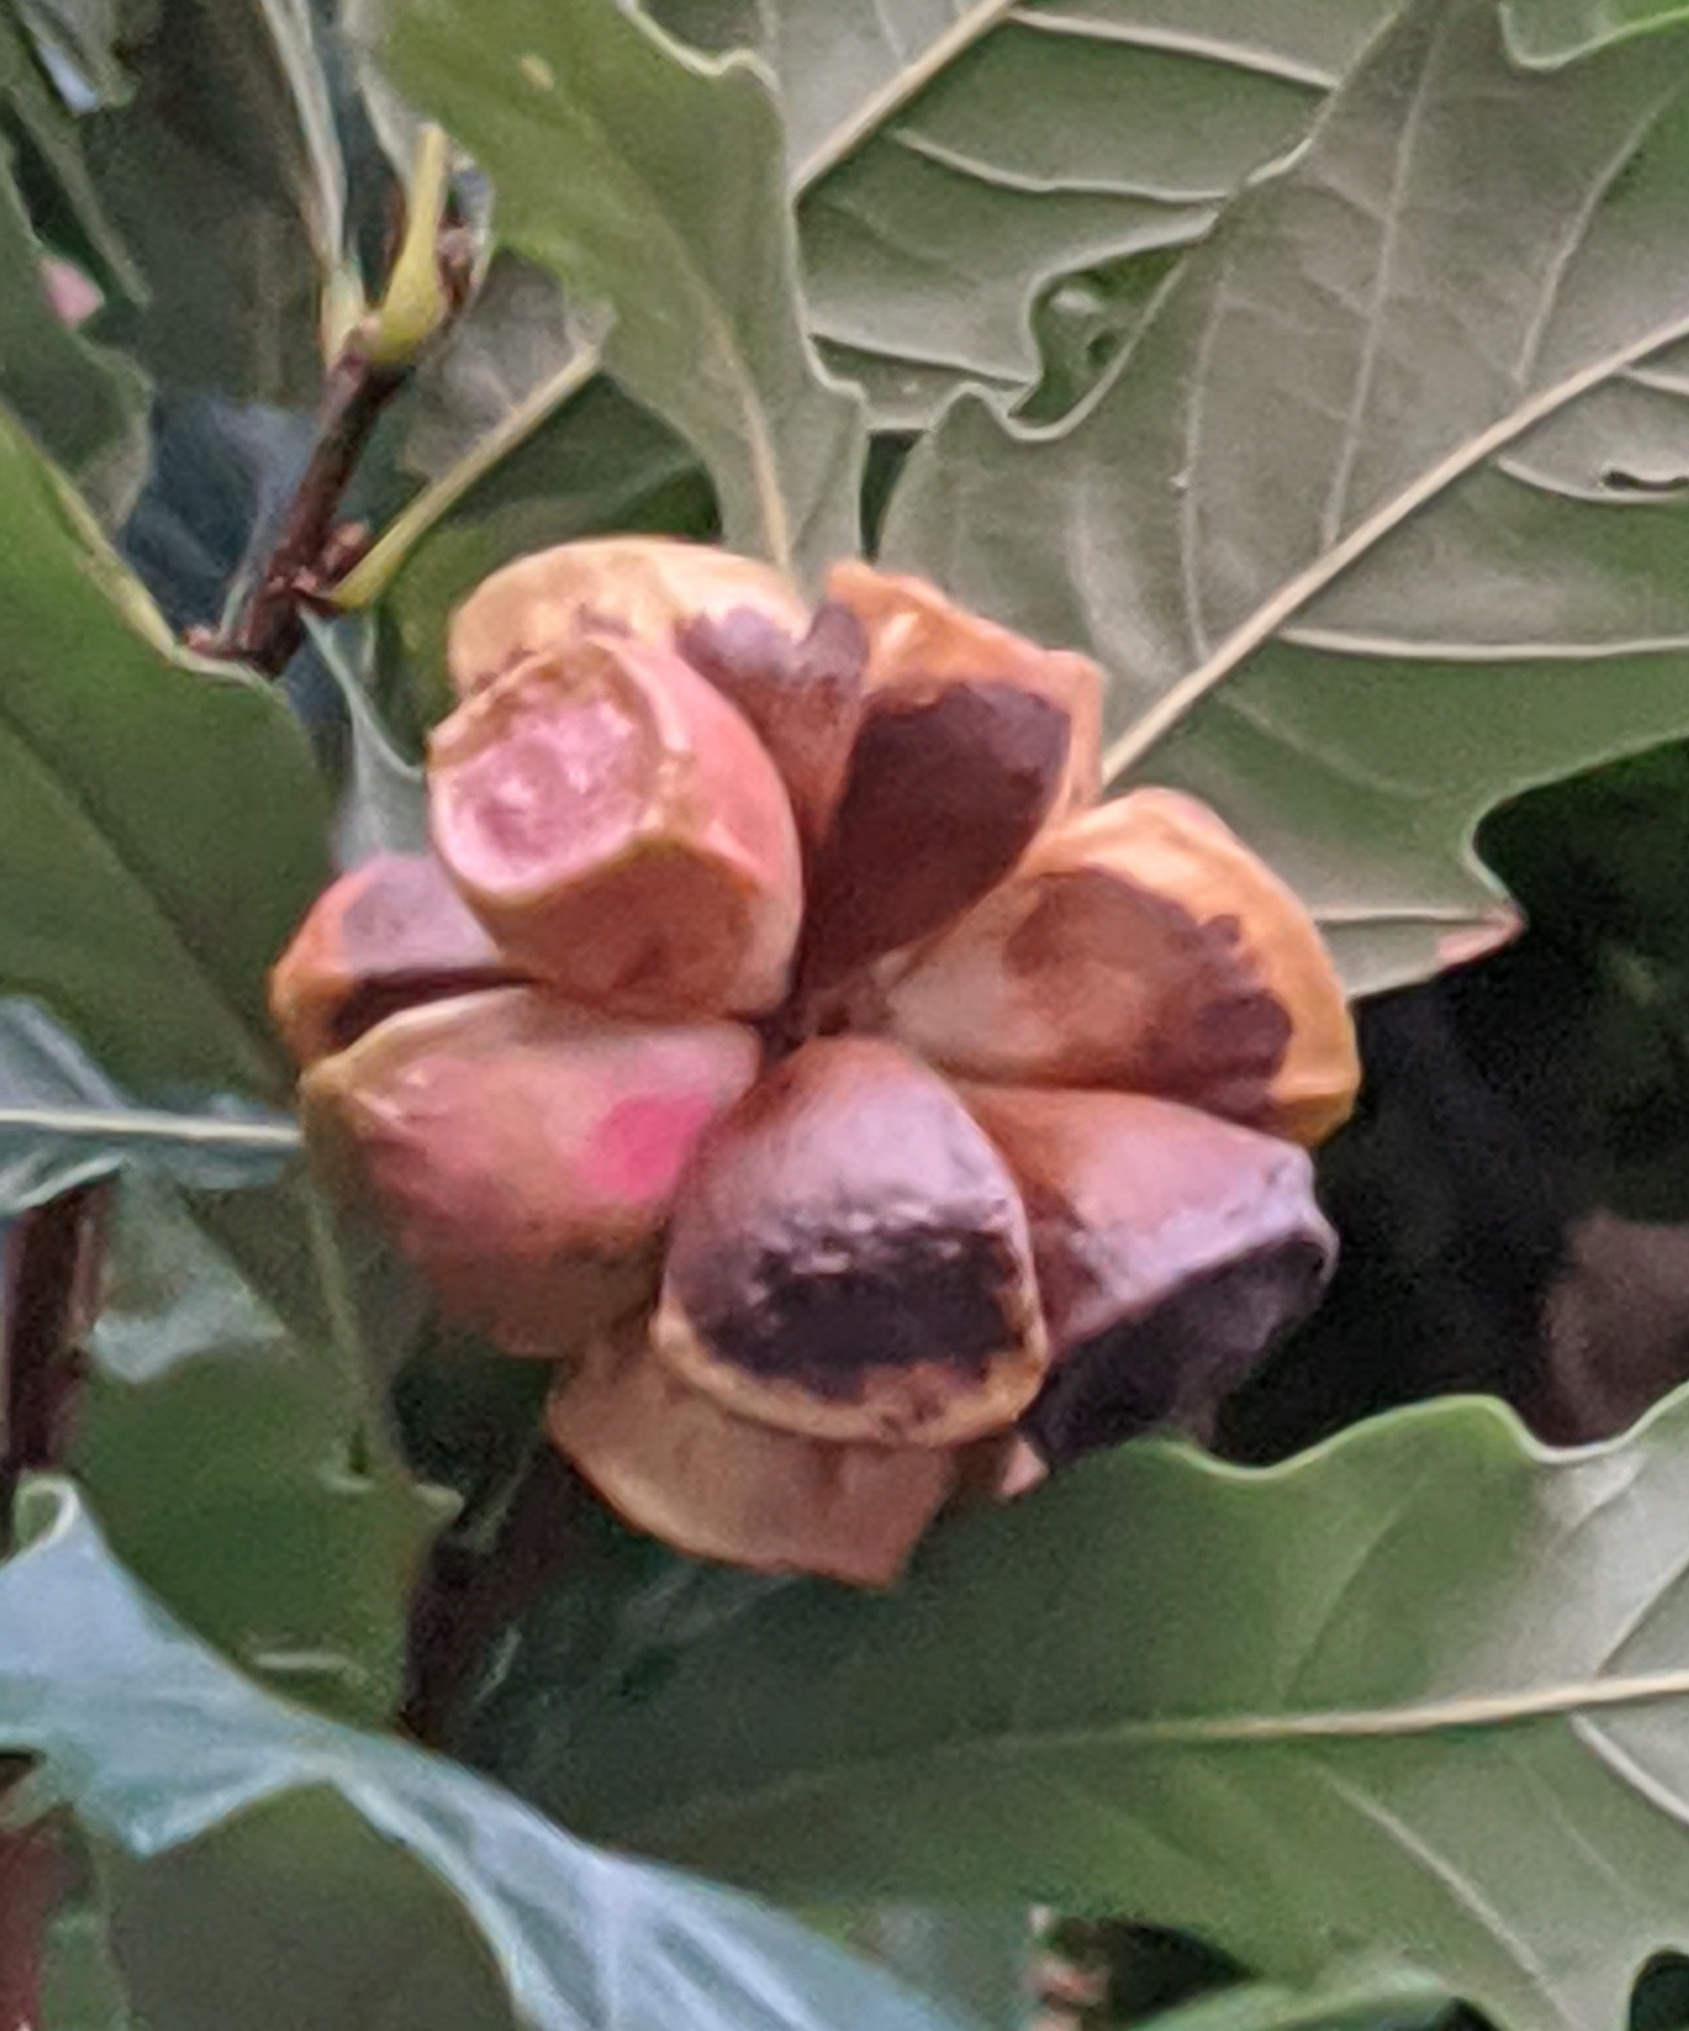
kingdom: Animalia
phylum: Arthropoda
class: Insecta
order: Hymenoptera
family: Cynipidae
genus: Andricus
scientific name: Andricus
